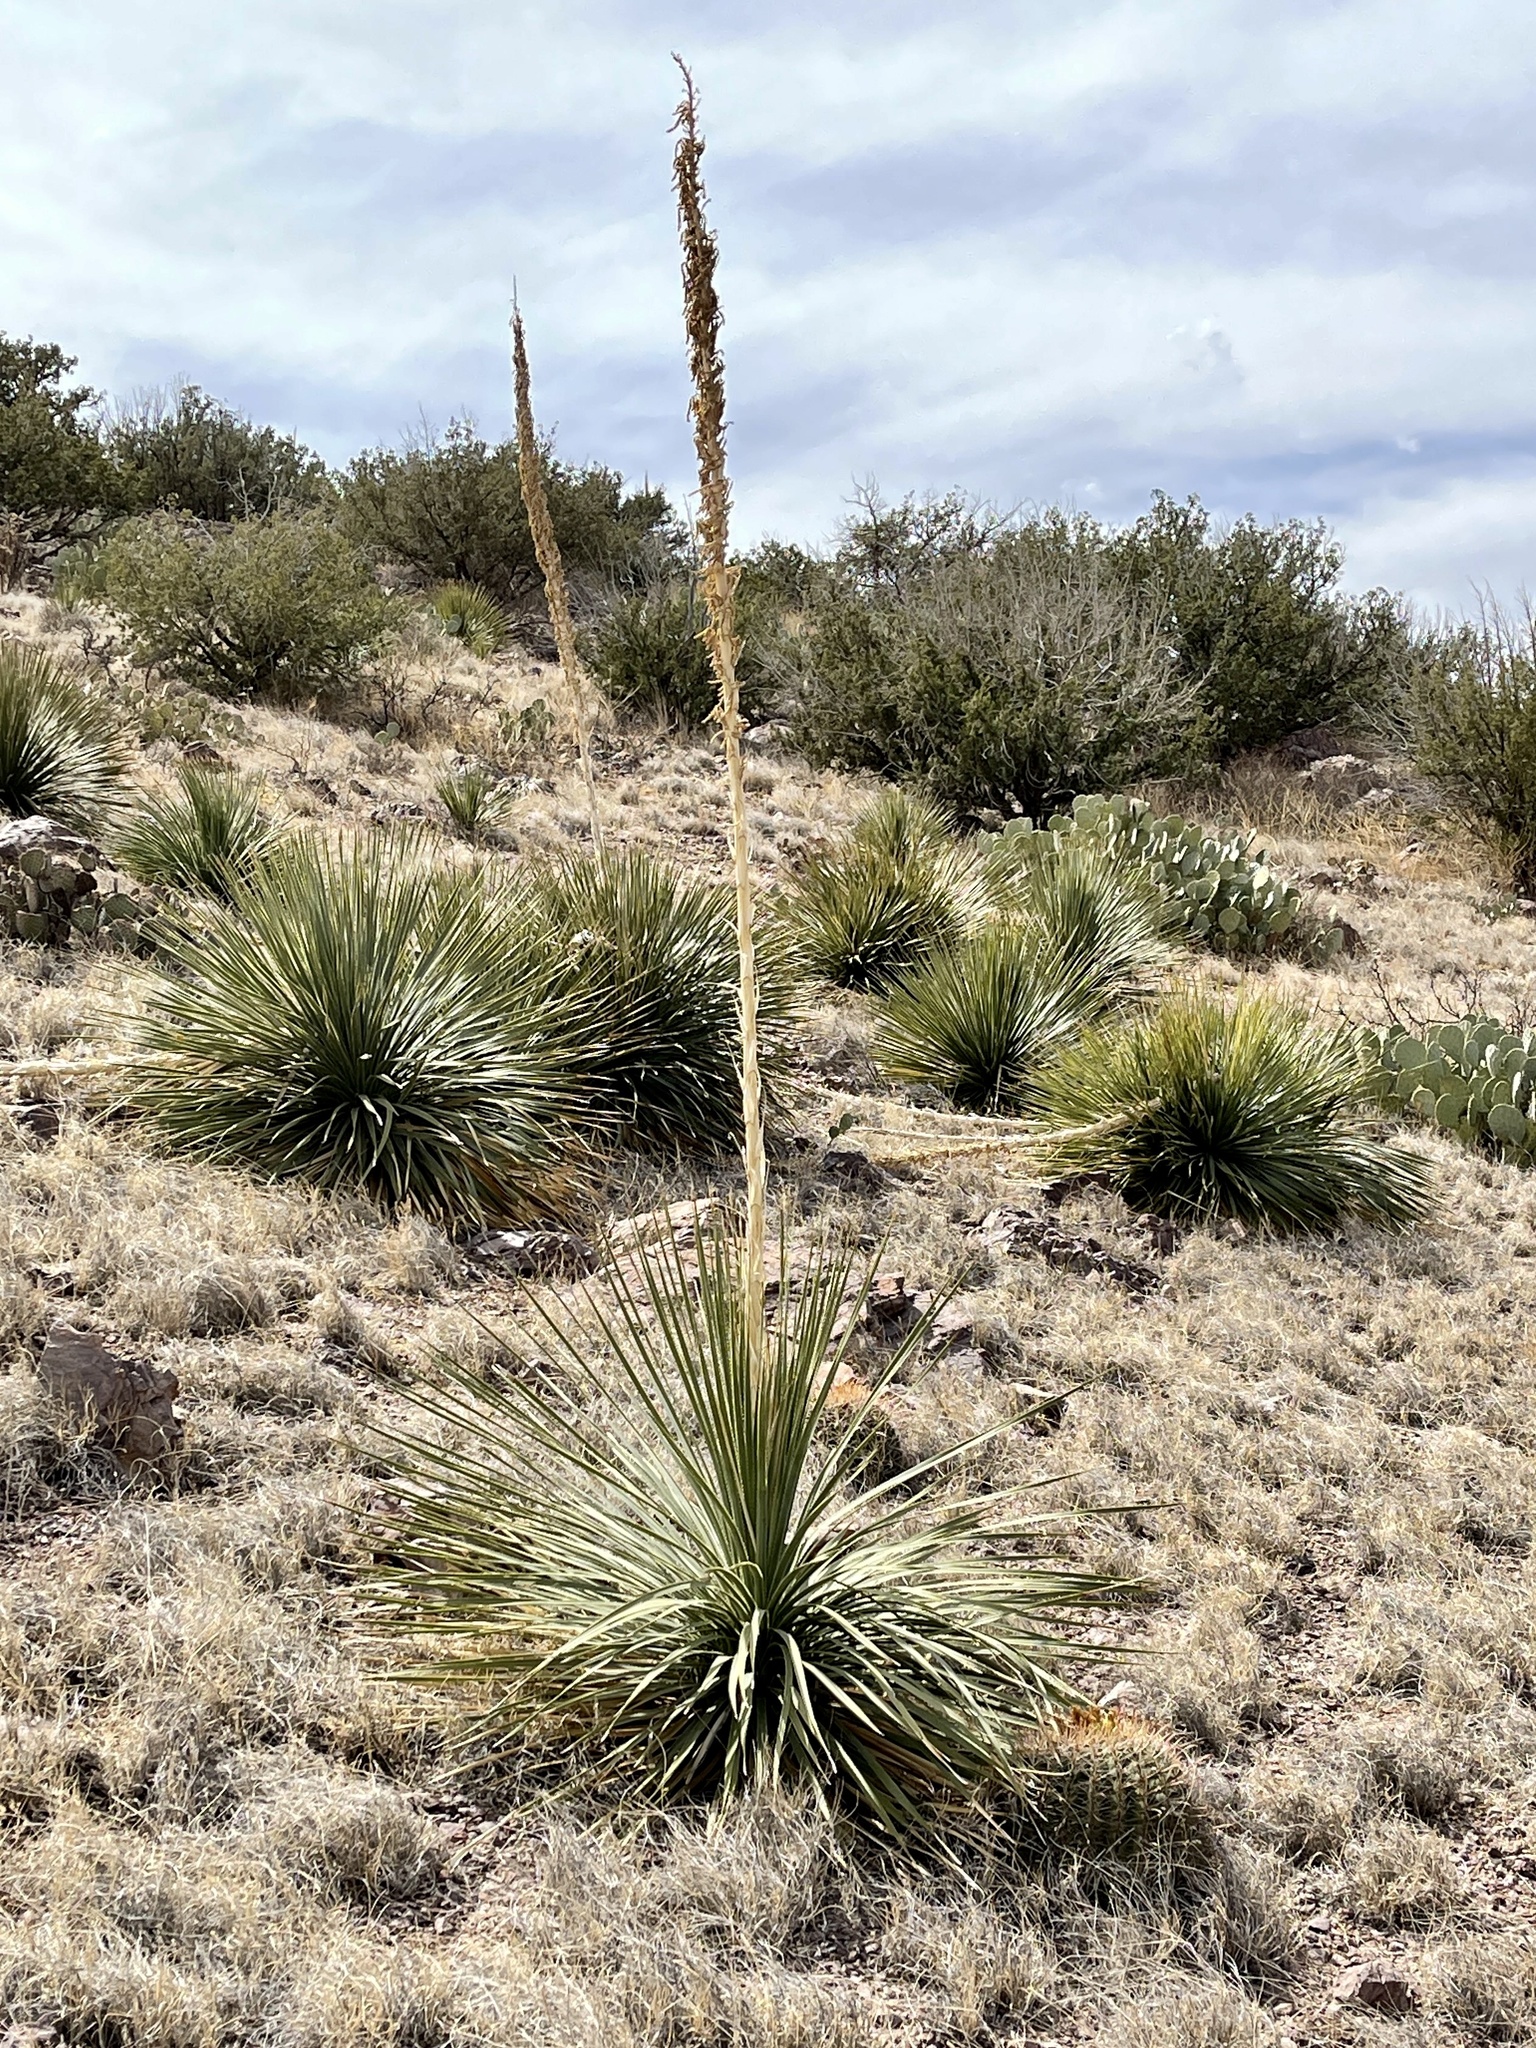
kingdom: Plantae
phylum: Tracheophyta
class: Magnoliopsida
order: Caryophyllales
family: Cactaceae
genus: Ferocactus
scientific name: Ferocactus wislizeni
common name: Candy barrel cactus
